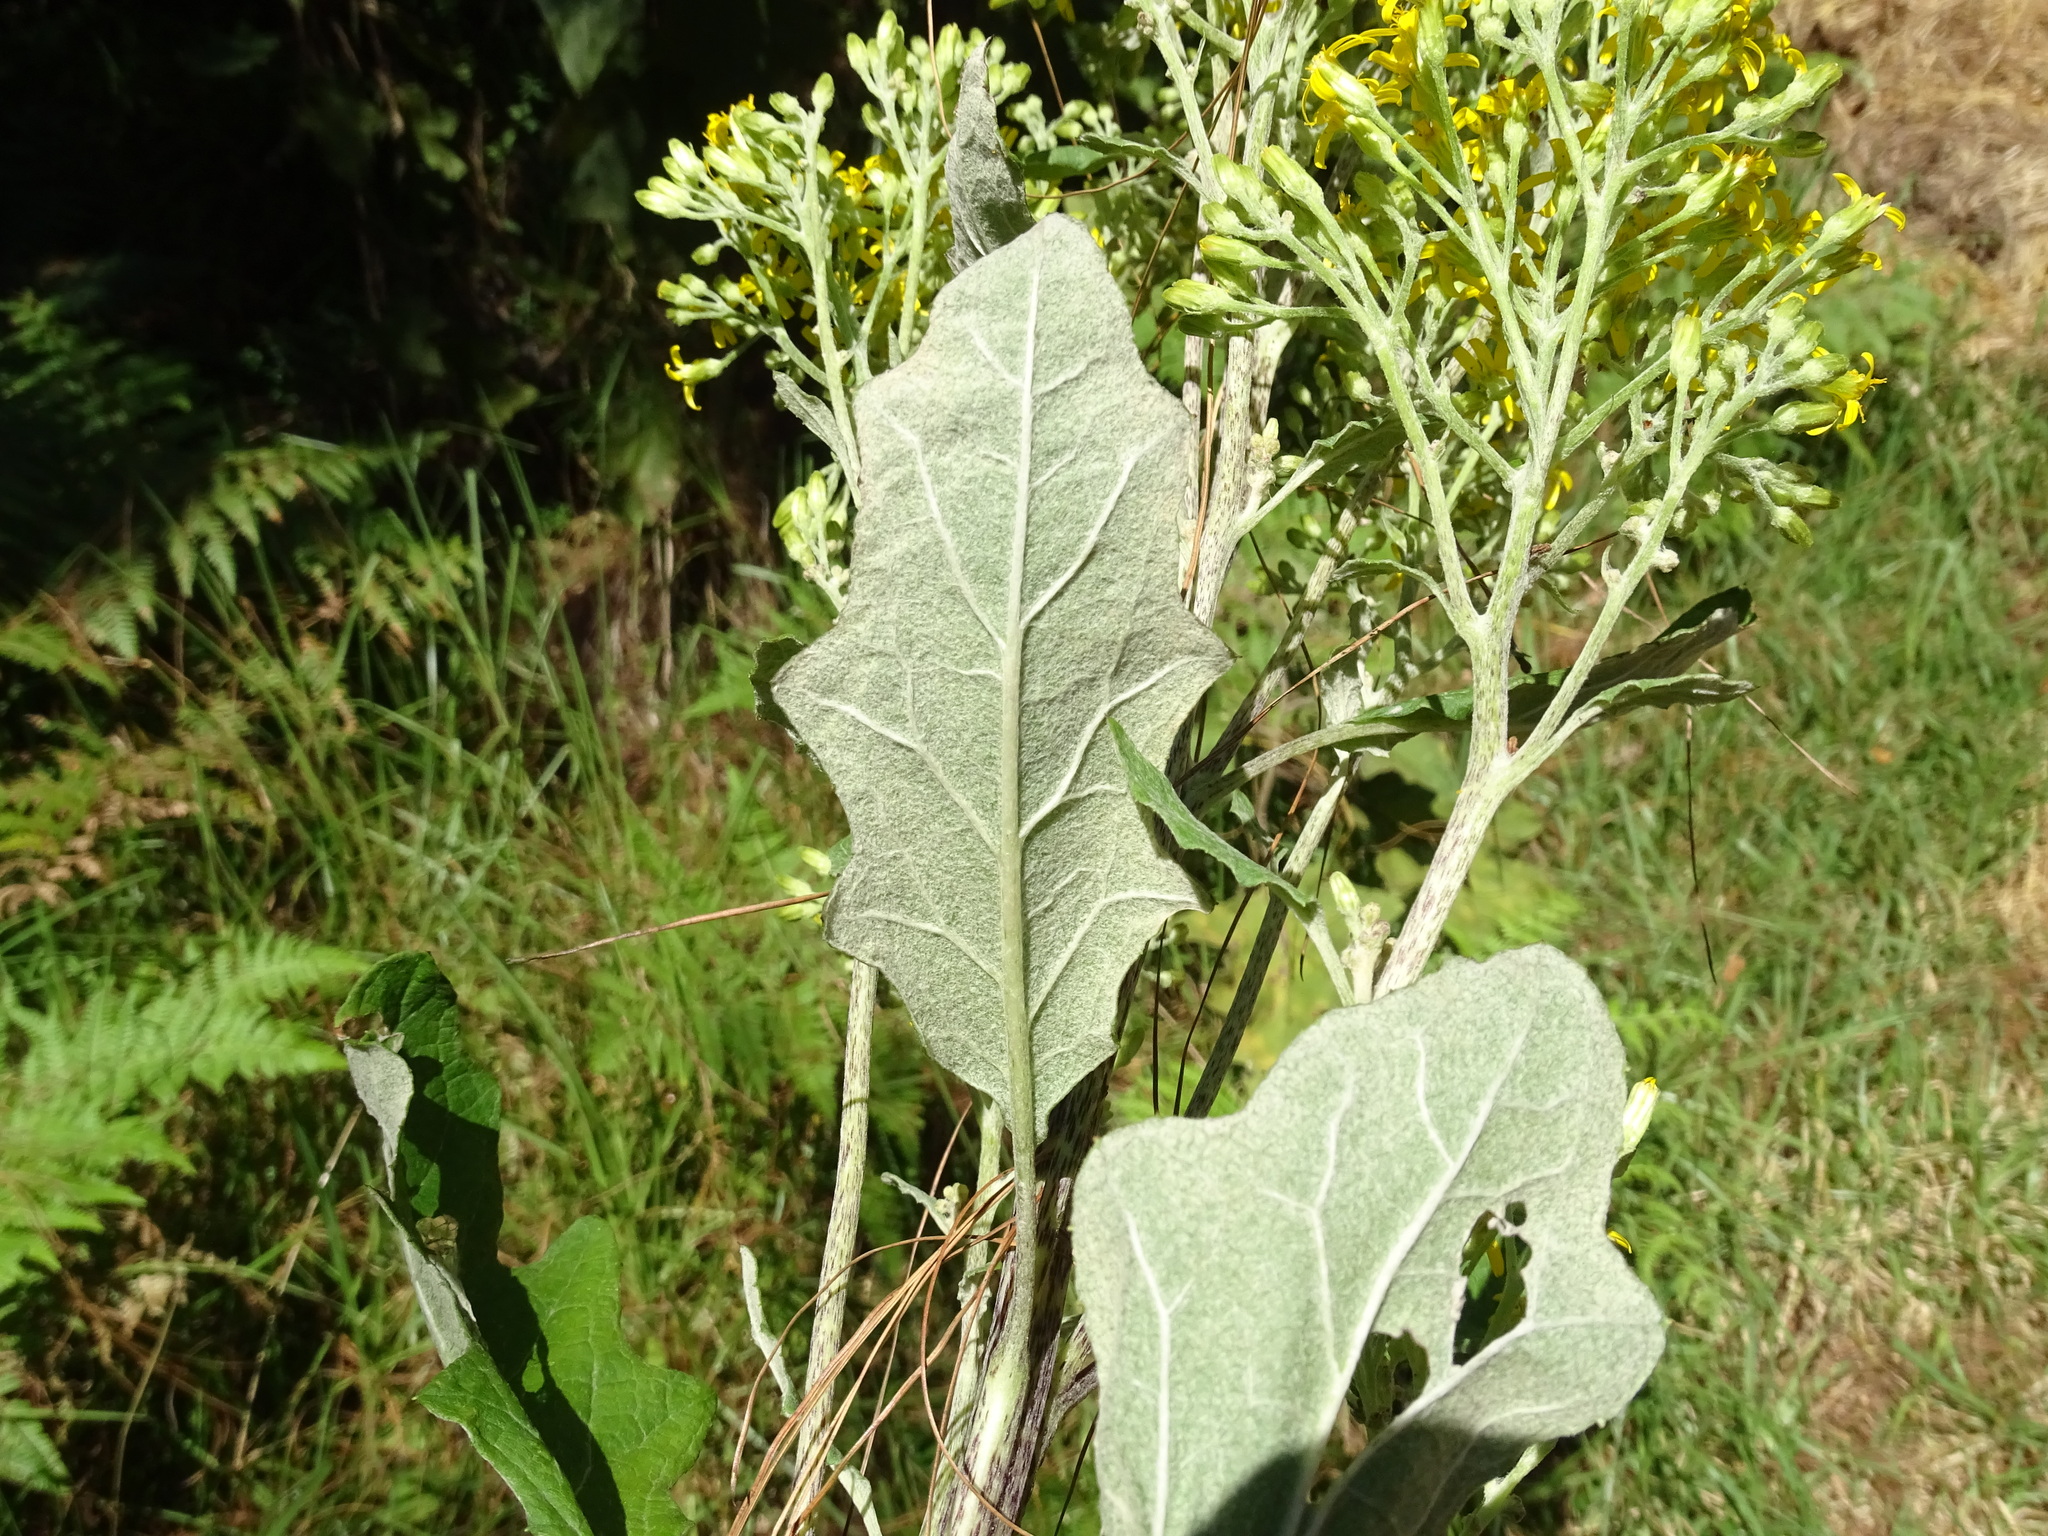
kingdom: Plantae
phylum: Tracheophyta
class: Magnoliopsida
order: Asterales
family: Asteraceae
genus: Roldana
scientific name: Roldana candicans
